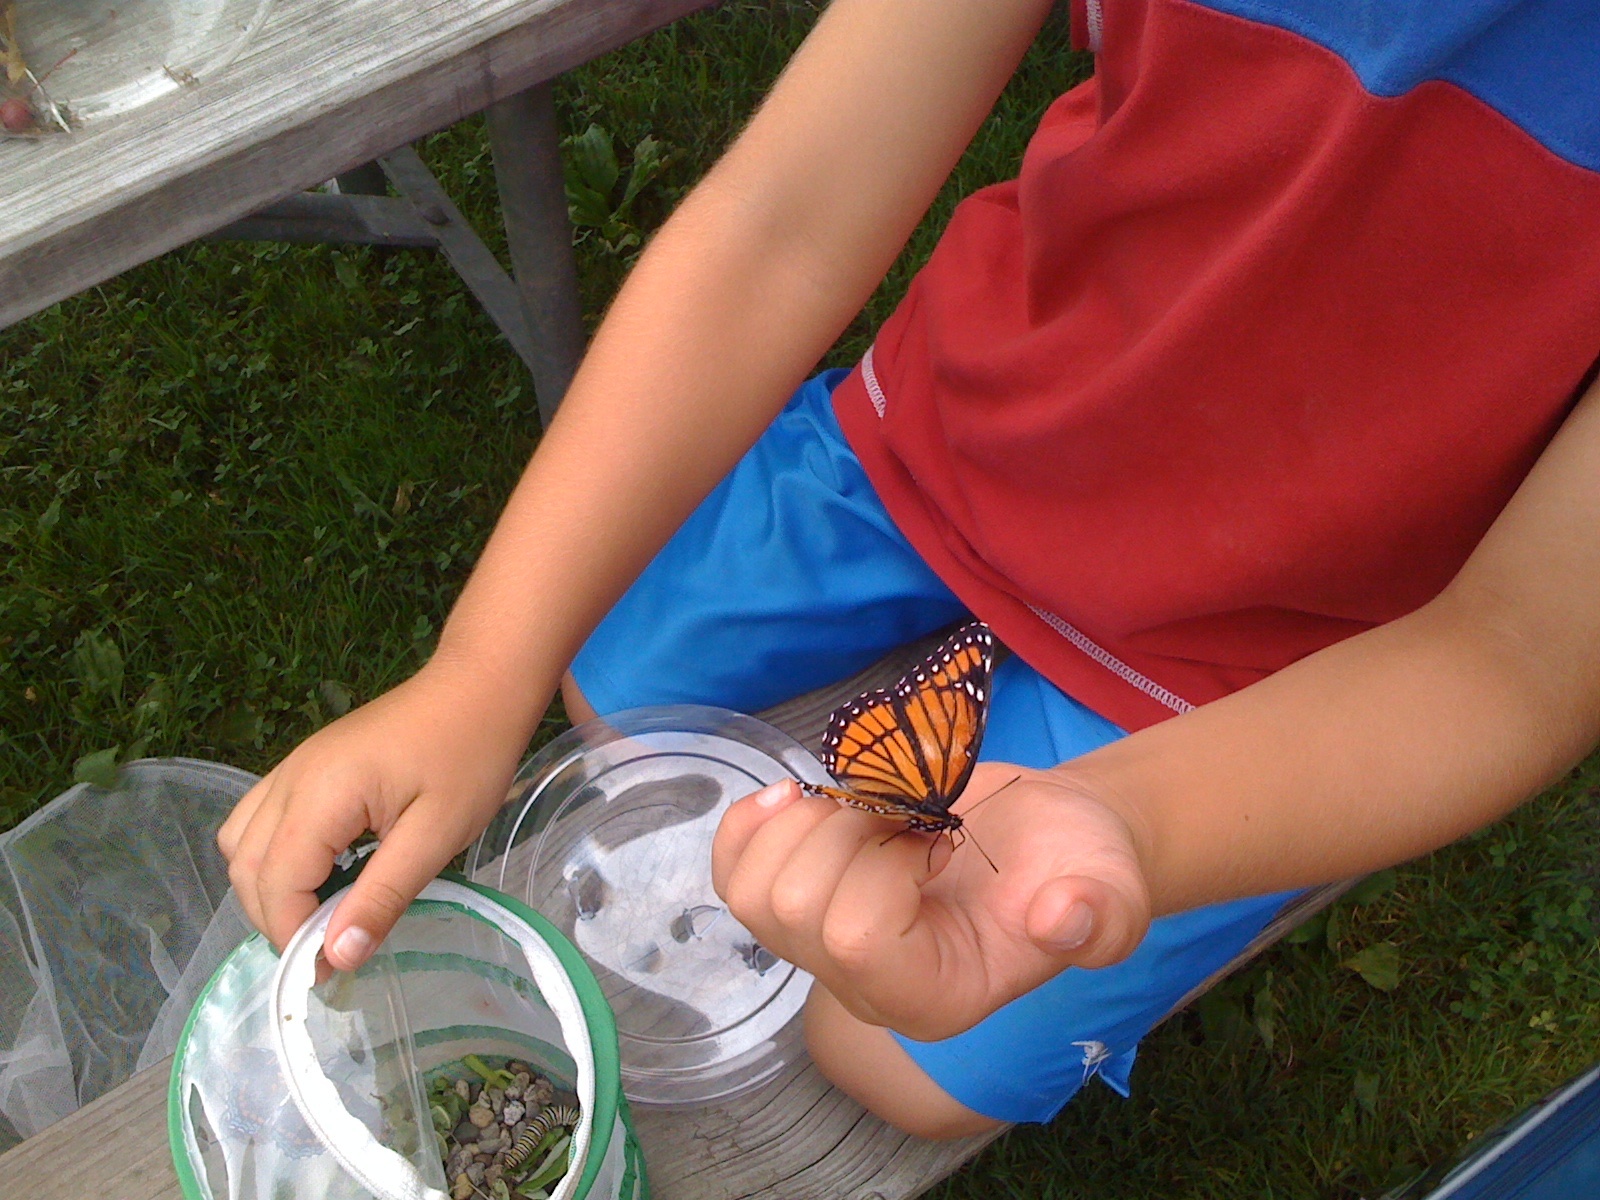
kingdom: Animalia
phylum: Arthropoda
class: Insecta
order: Lepidoptera
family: Nymphalidae
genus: Limenitis
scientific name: Limenitis archippus
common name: Viceroy
